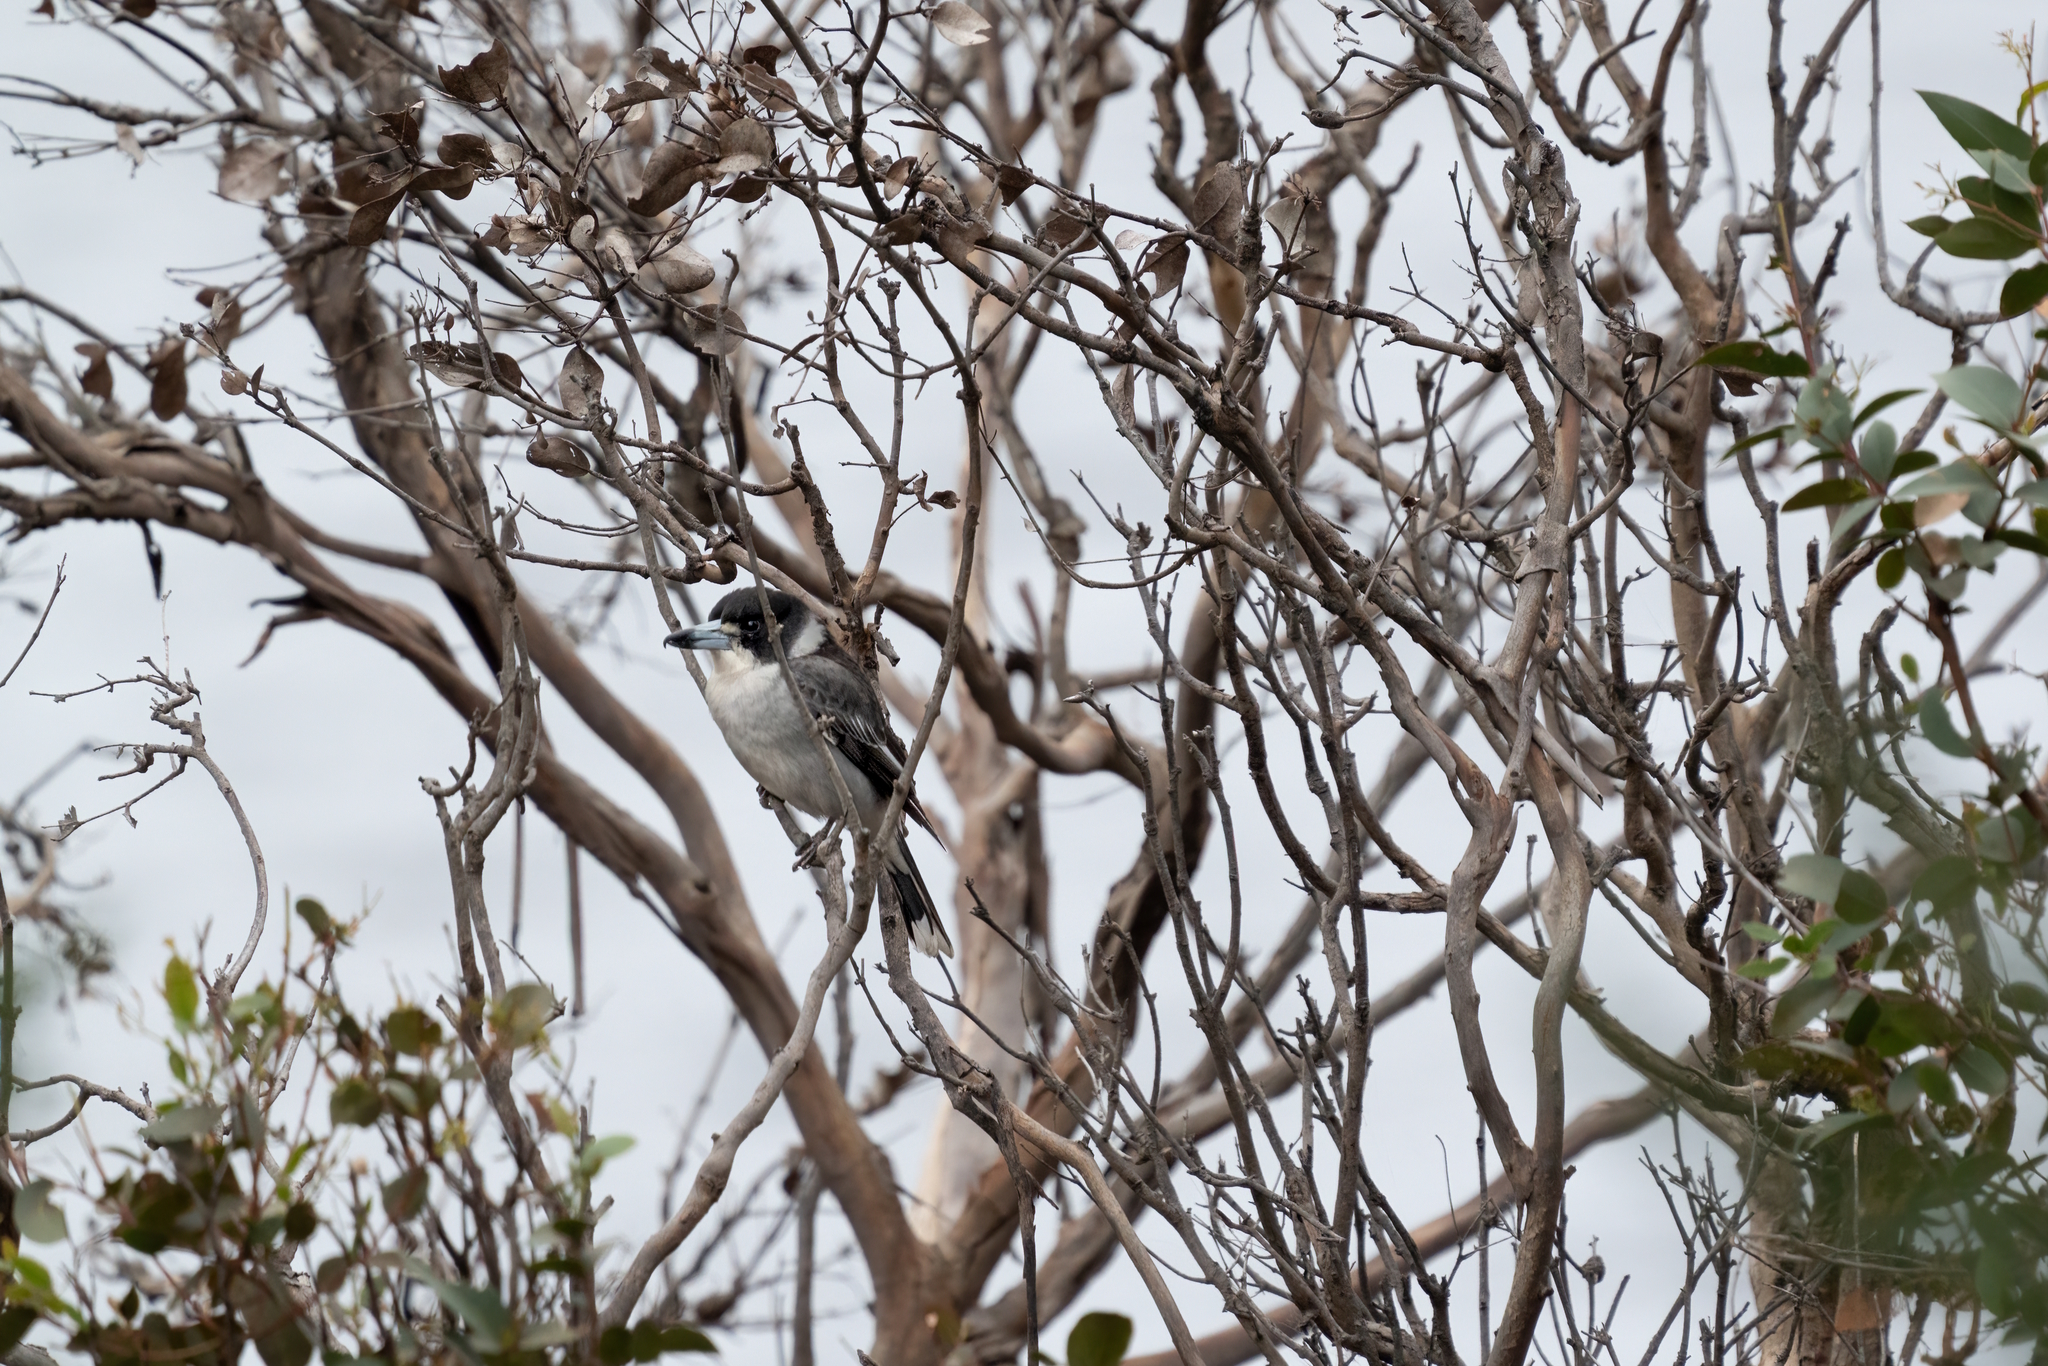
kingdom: Animalia
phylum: Chordata
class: Aves
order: Passeriformes
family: Cracticidae
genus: Cracticus
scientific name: Cracticus torquatus
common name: Grey butcherbird
